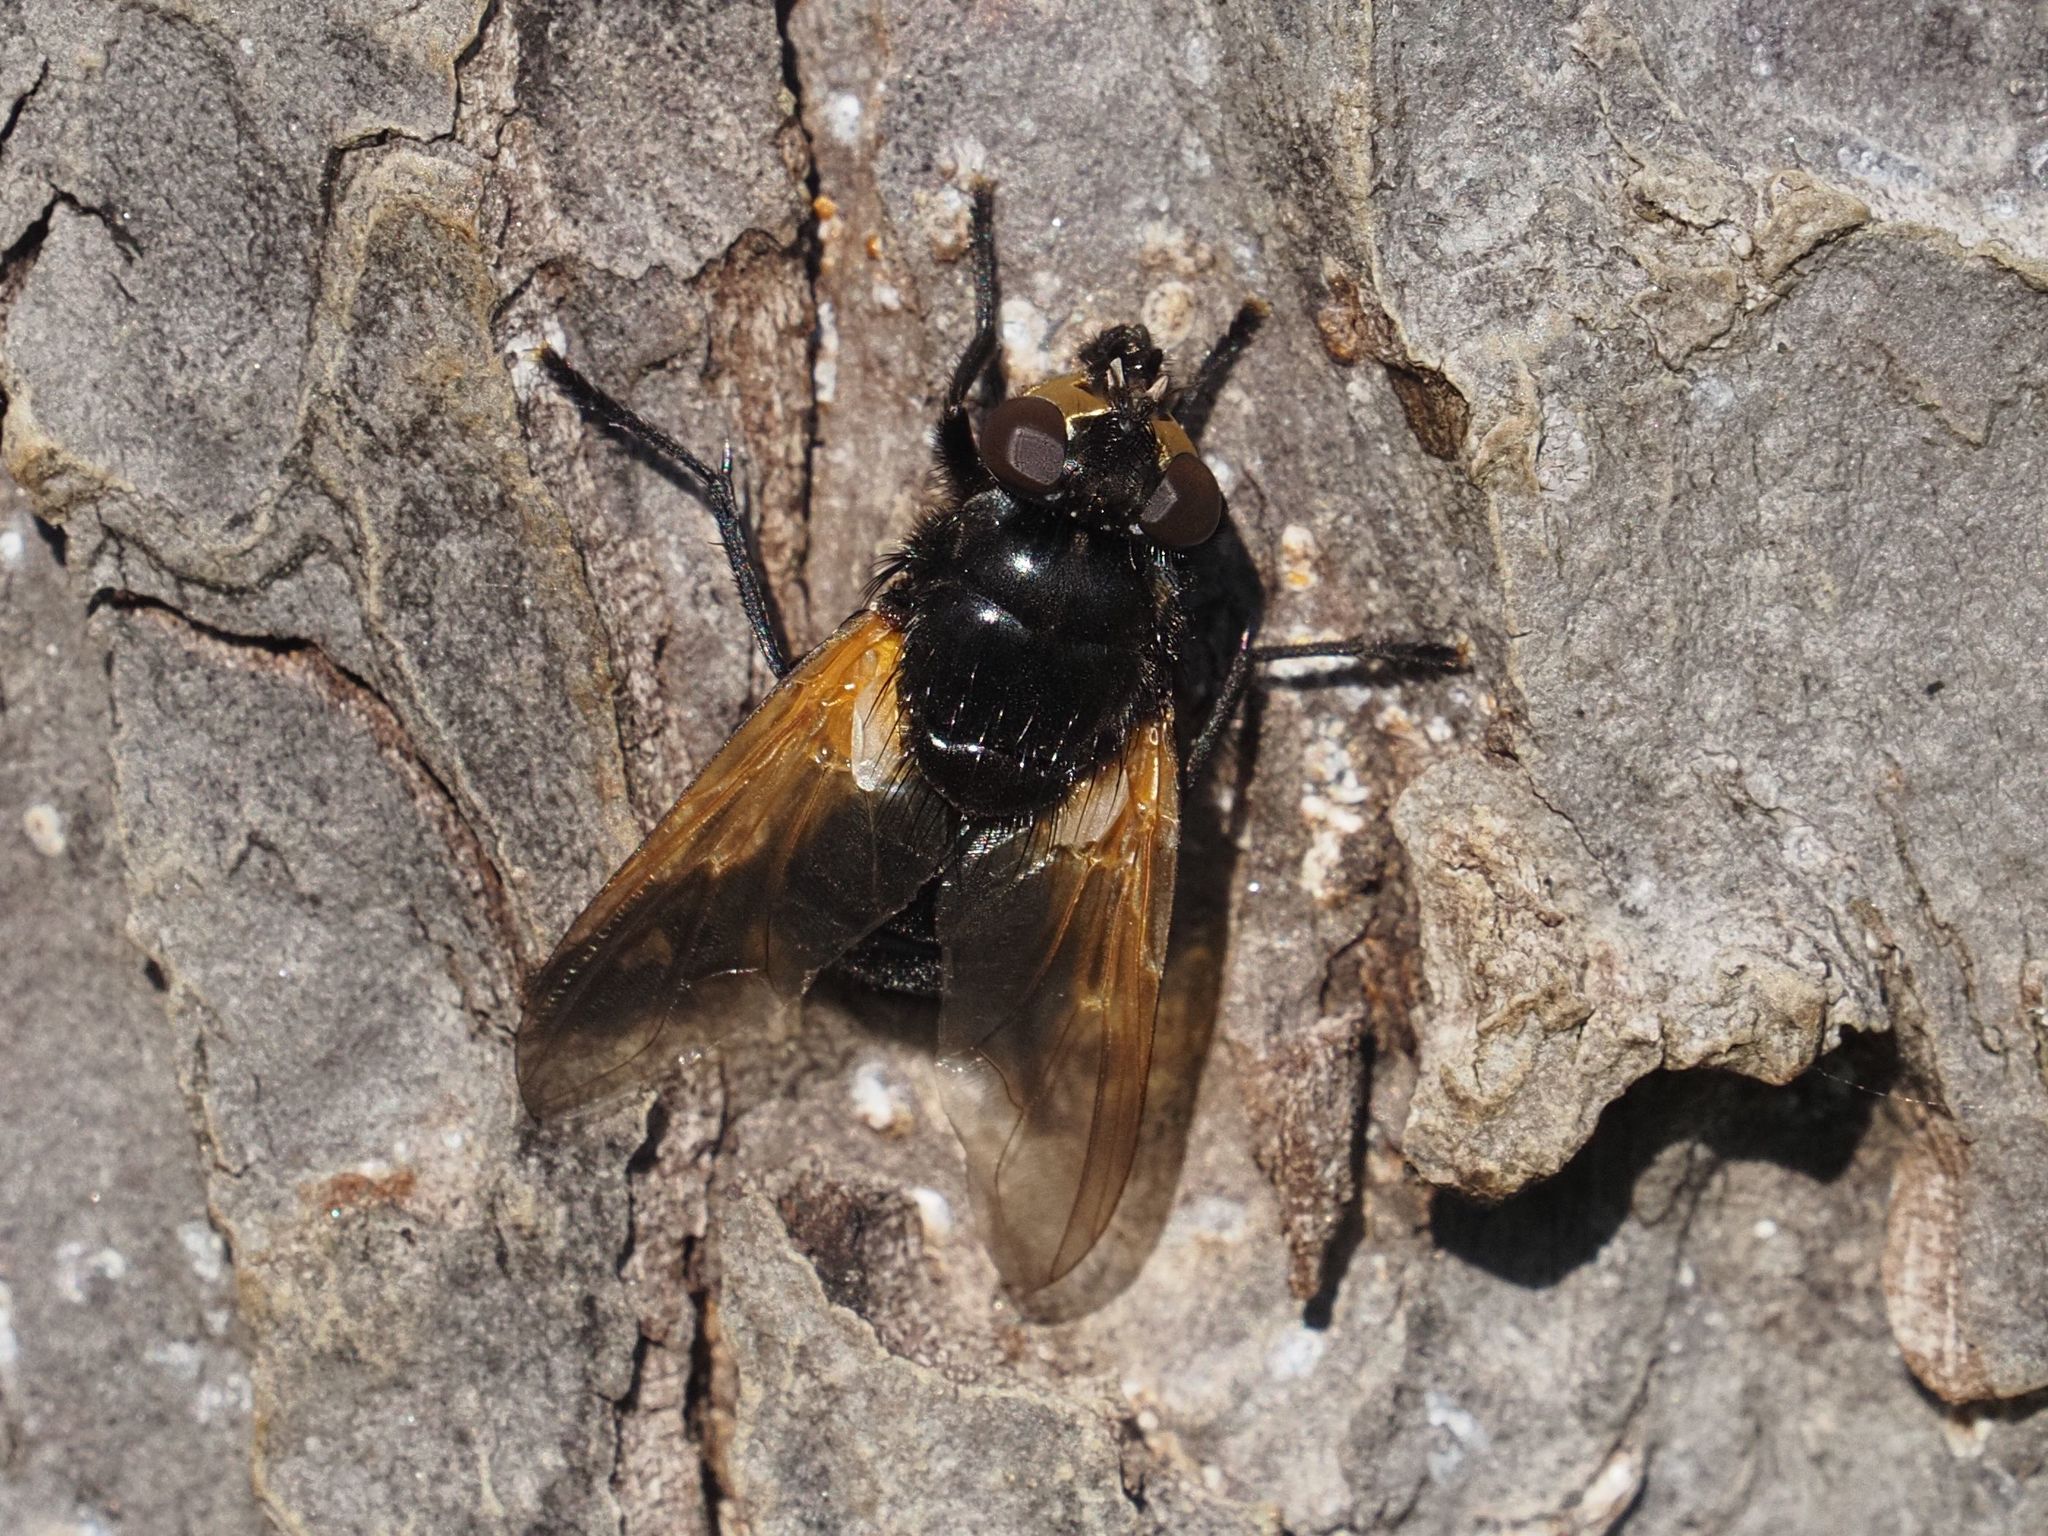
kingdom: Animalia
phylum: Arthropoda
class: Insecta
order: Diptera
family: Muscidae
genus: Mesembrina
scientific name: Mesembrina meridiana
